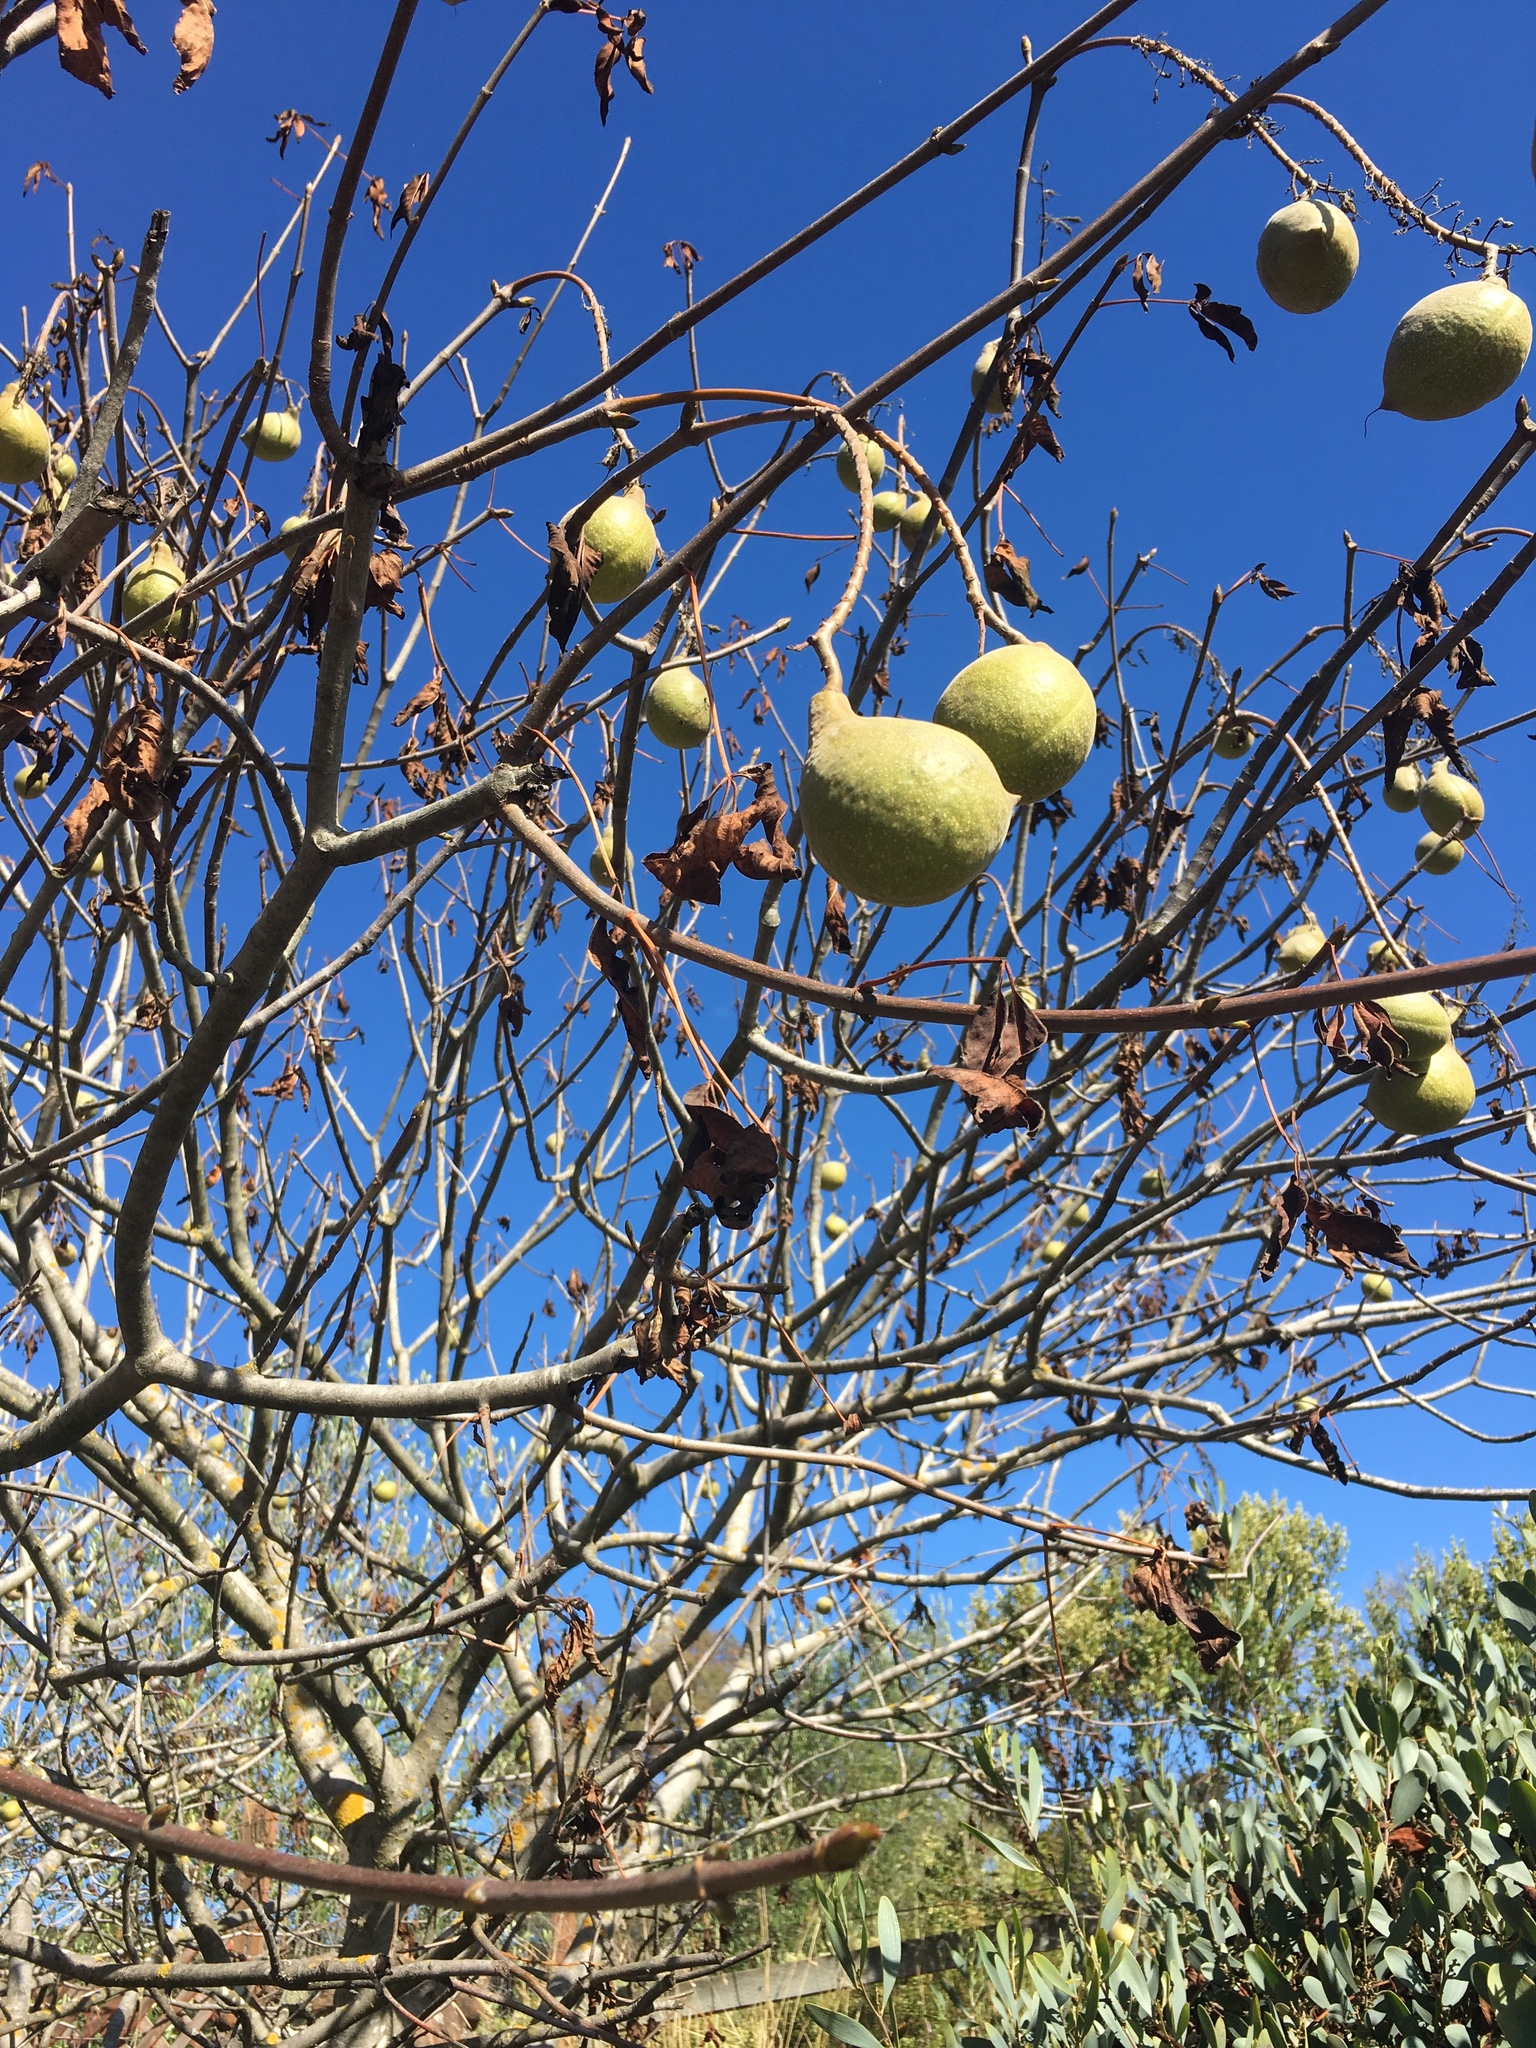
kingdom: Plantae
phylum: Tracheophyta
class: Magnoliopsida
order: Sapindales
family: Sapindaceae
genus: Aesculus
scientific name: Aesculus californica
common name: California buckeye
